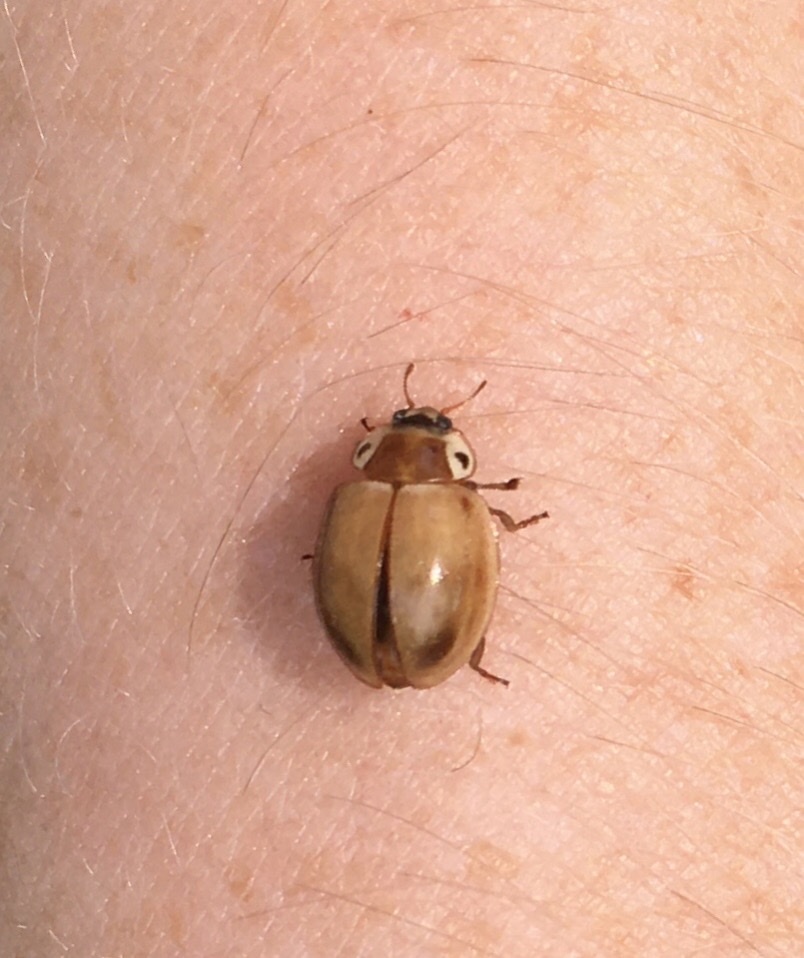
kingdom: Animalia
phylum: Arthropoda
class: Insecta
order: Coleoptera
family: Coccinellidae
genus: Myzia
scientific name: Myzia pullata
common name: Streaked lady beetle
